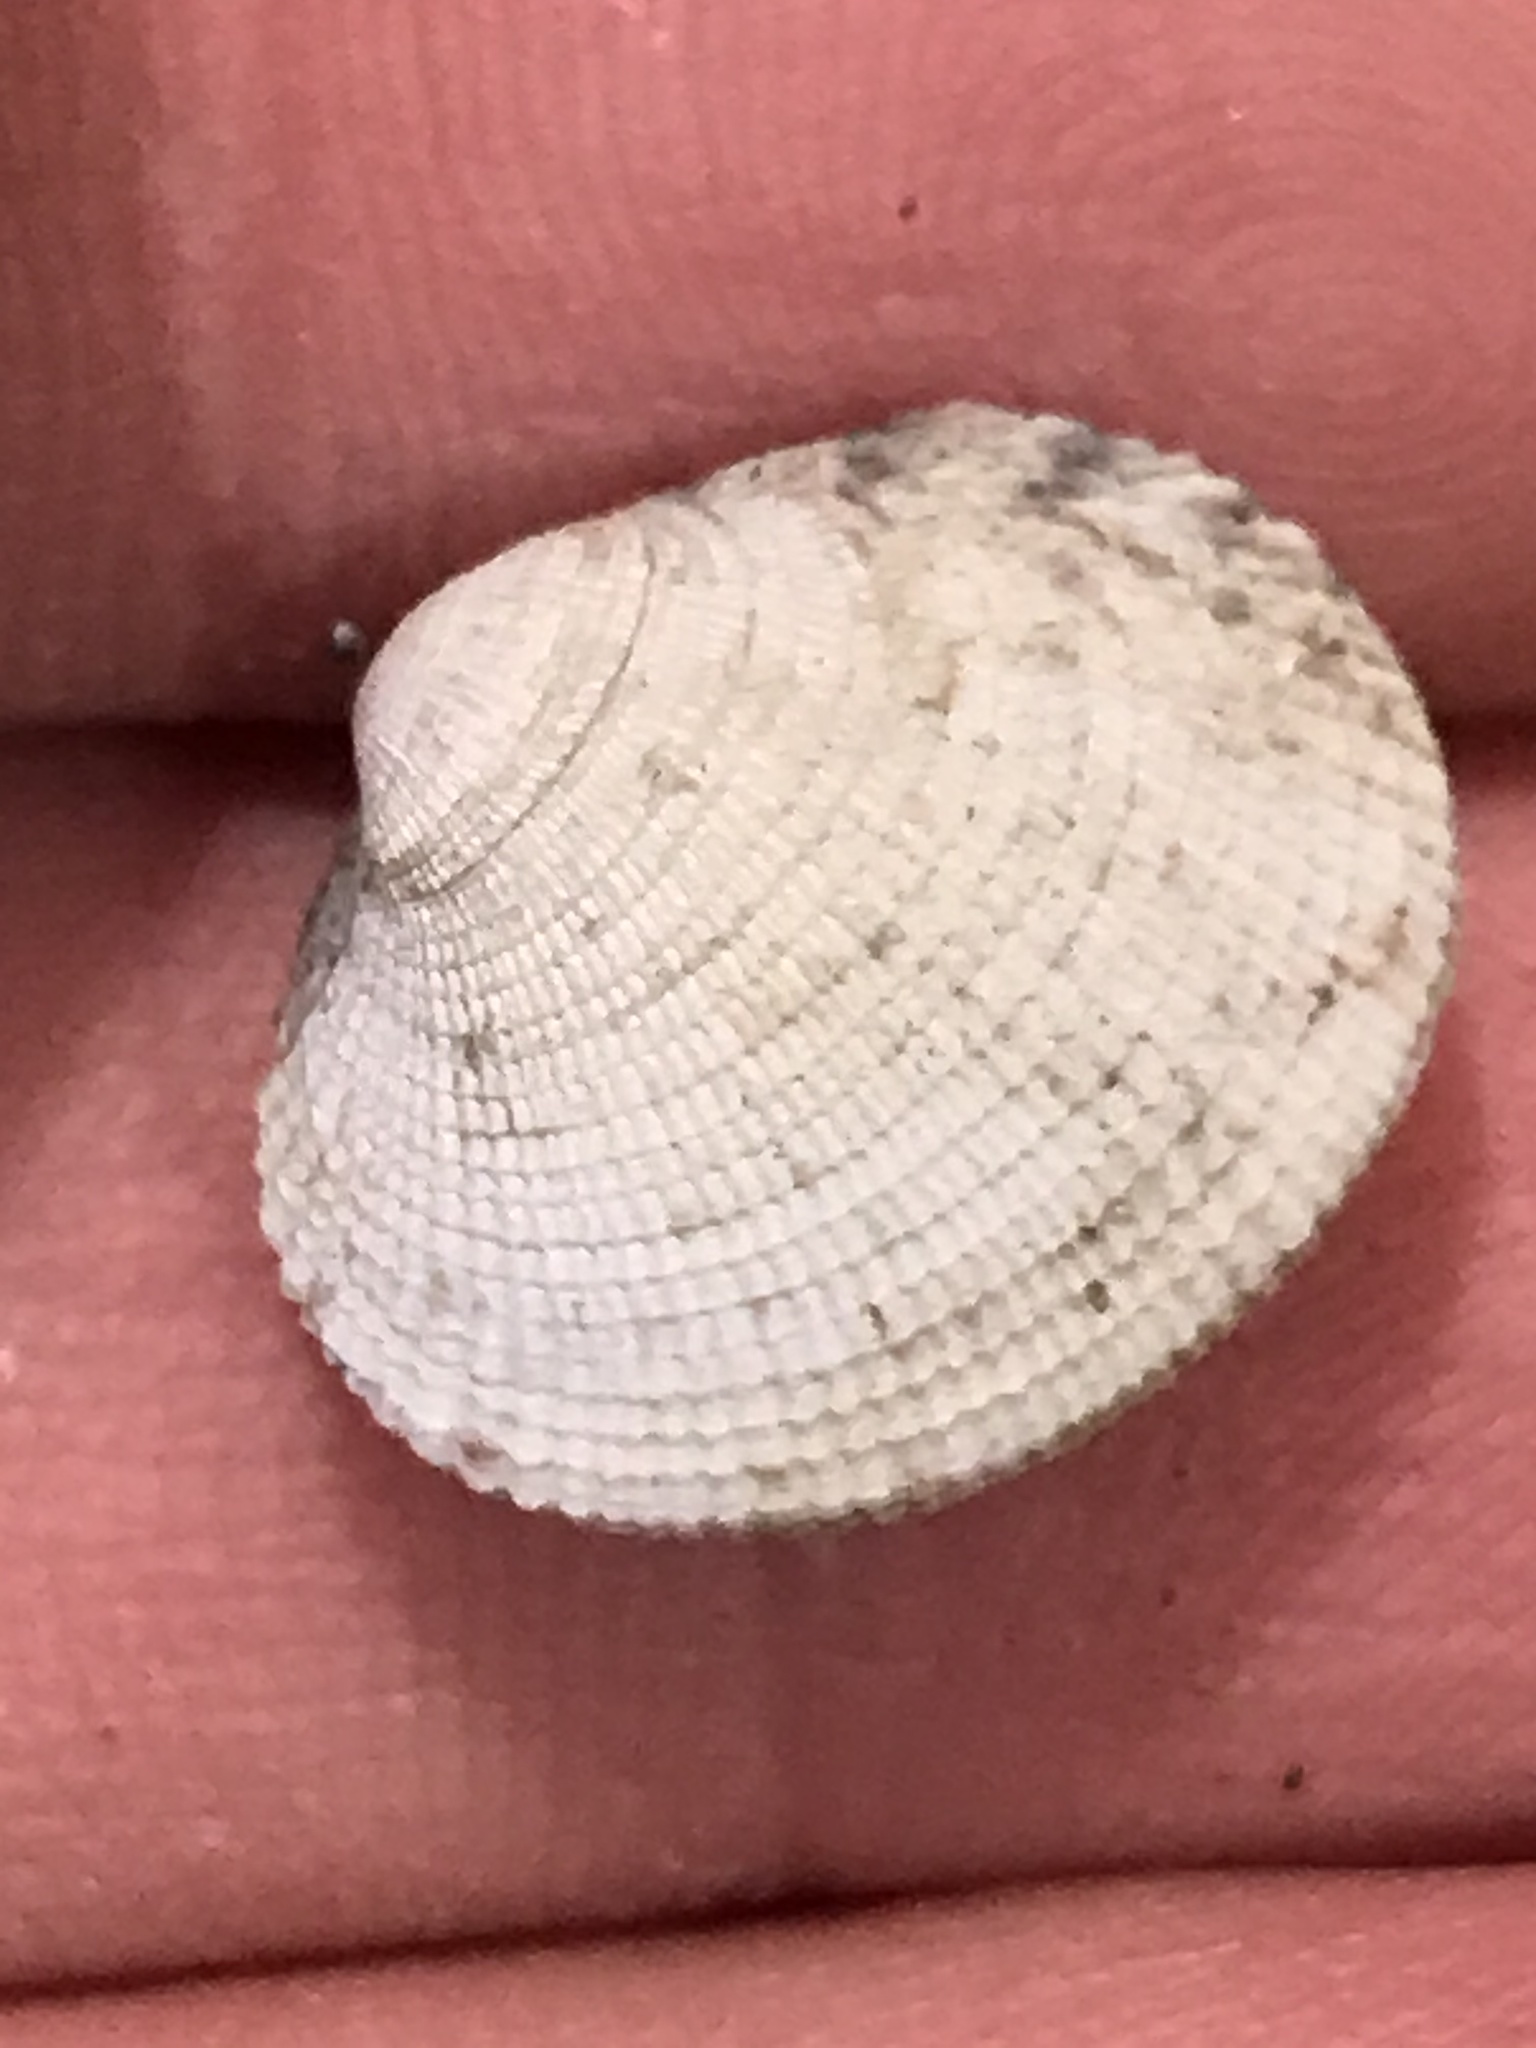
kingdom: Animalia
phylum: Mollusca
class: Bivalvia
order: Venerida
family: Veneridae
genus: Leukoma
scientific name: Leukoma staminea
